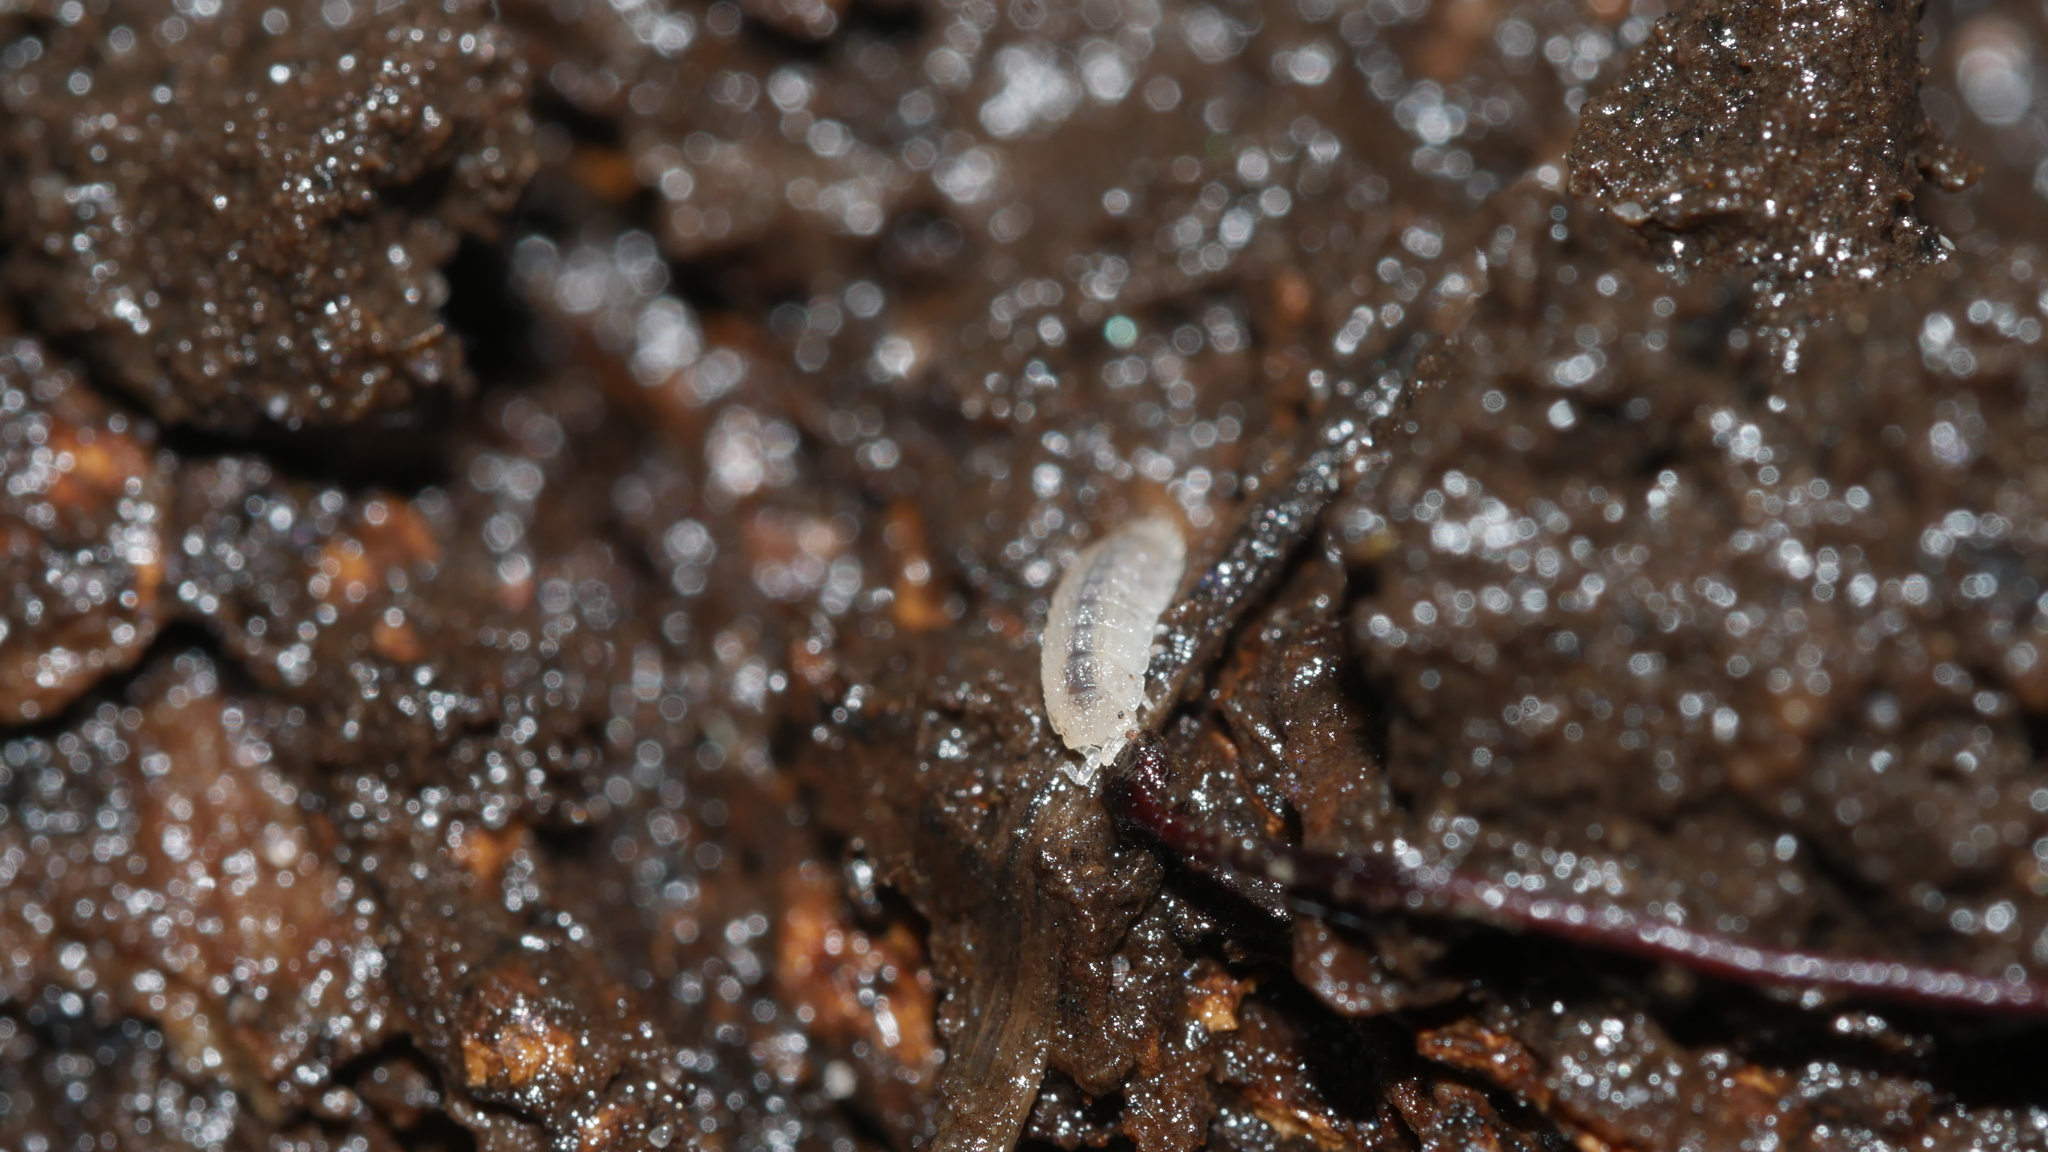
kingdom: Animalia
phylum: Arthropoda
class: Malacostraca
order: Isopoda
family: Trichoniscidae
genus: Haplophthalmus
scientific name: Haplophthalmus danicus
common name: Pillbug
